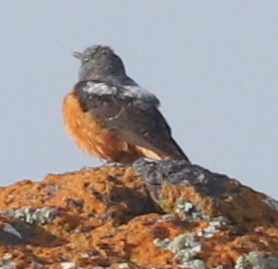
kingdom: Animalia
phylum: Chordata
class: Aves
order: Passeriformes
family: Muscicapidae
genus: Monticola
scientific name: Monticola saxatilis
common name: Rufous-tailed rock thrush
